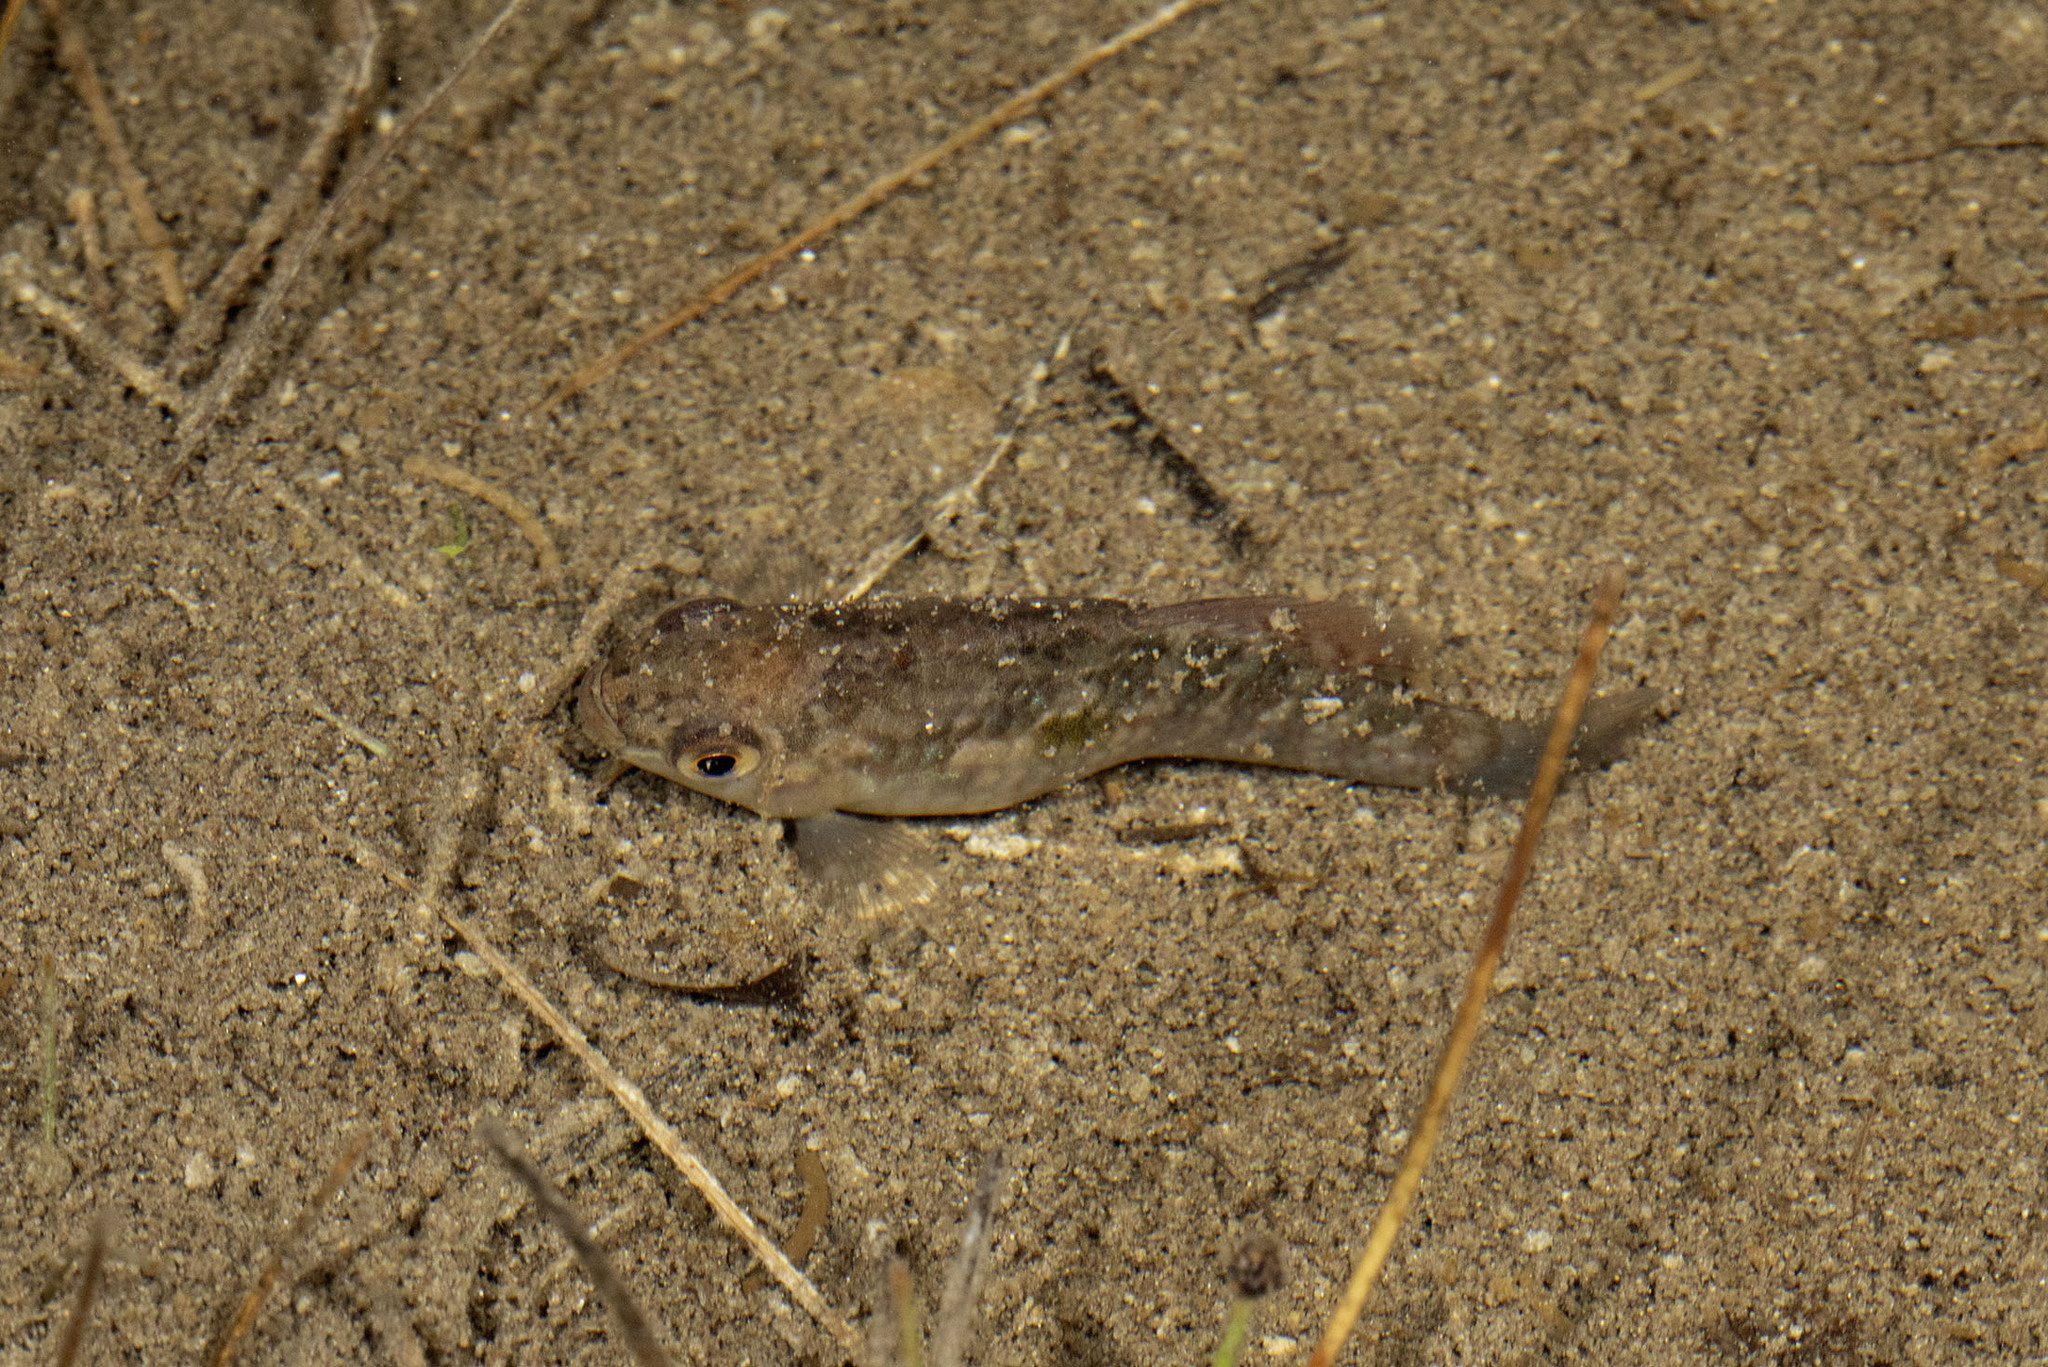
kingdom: Animalia
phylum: Chordata
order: Cyprinodontiformes
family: Cyprinodontidae
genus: Jordanella
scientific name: Jordanella floridae
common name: Flagfish
